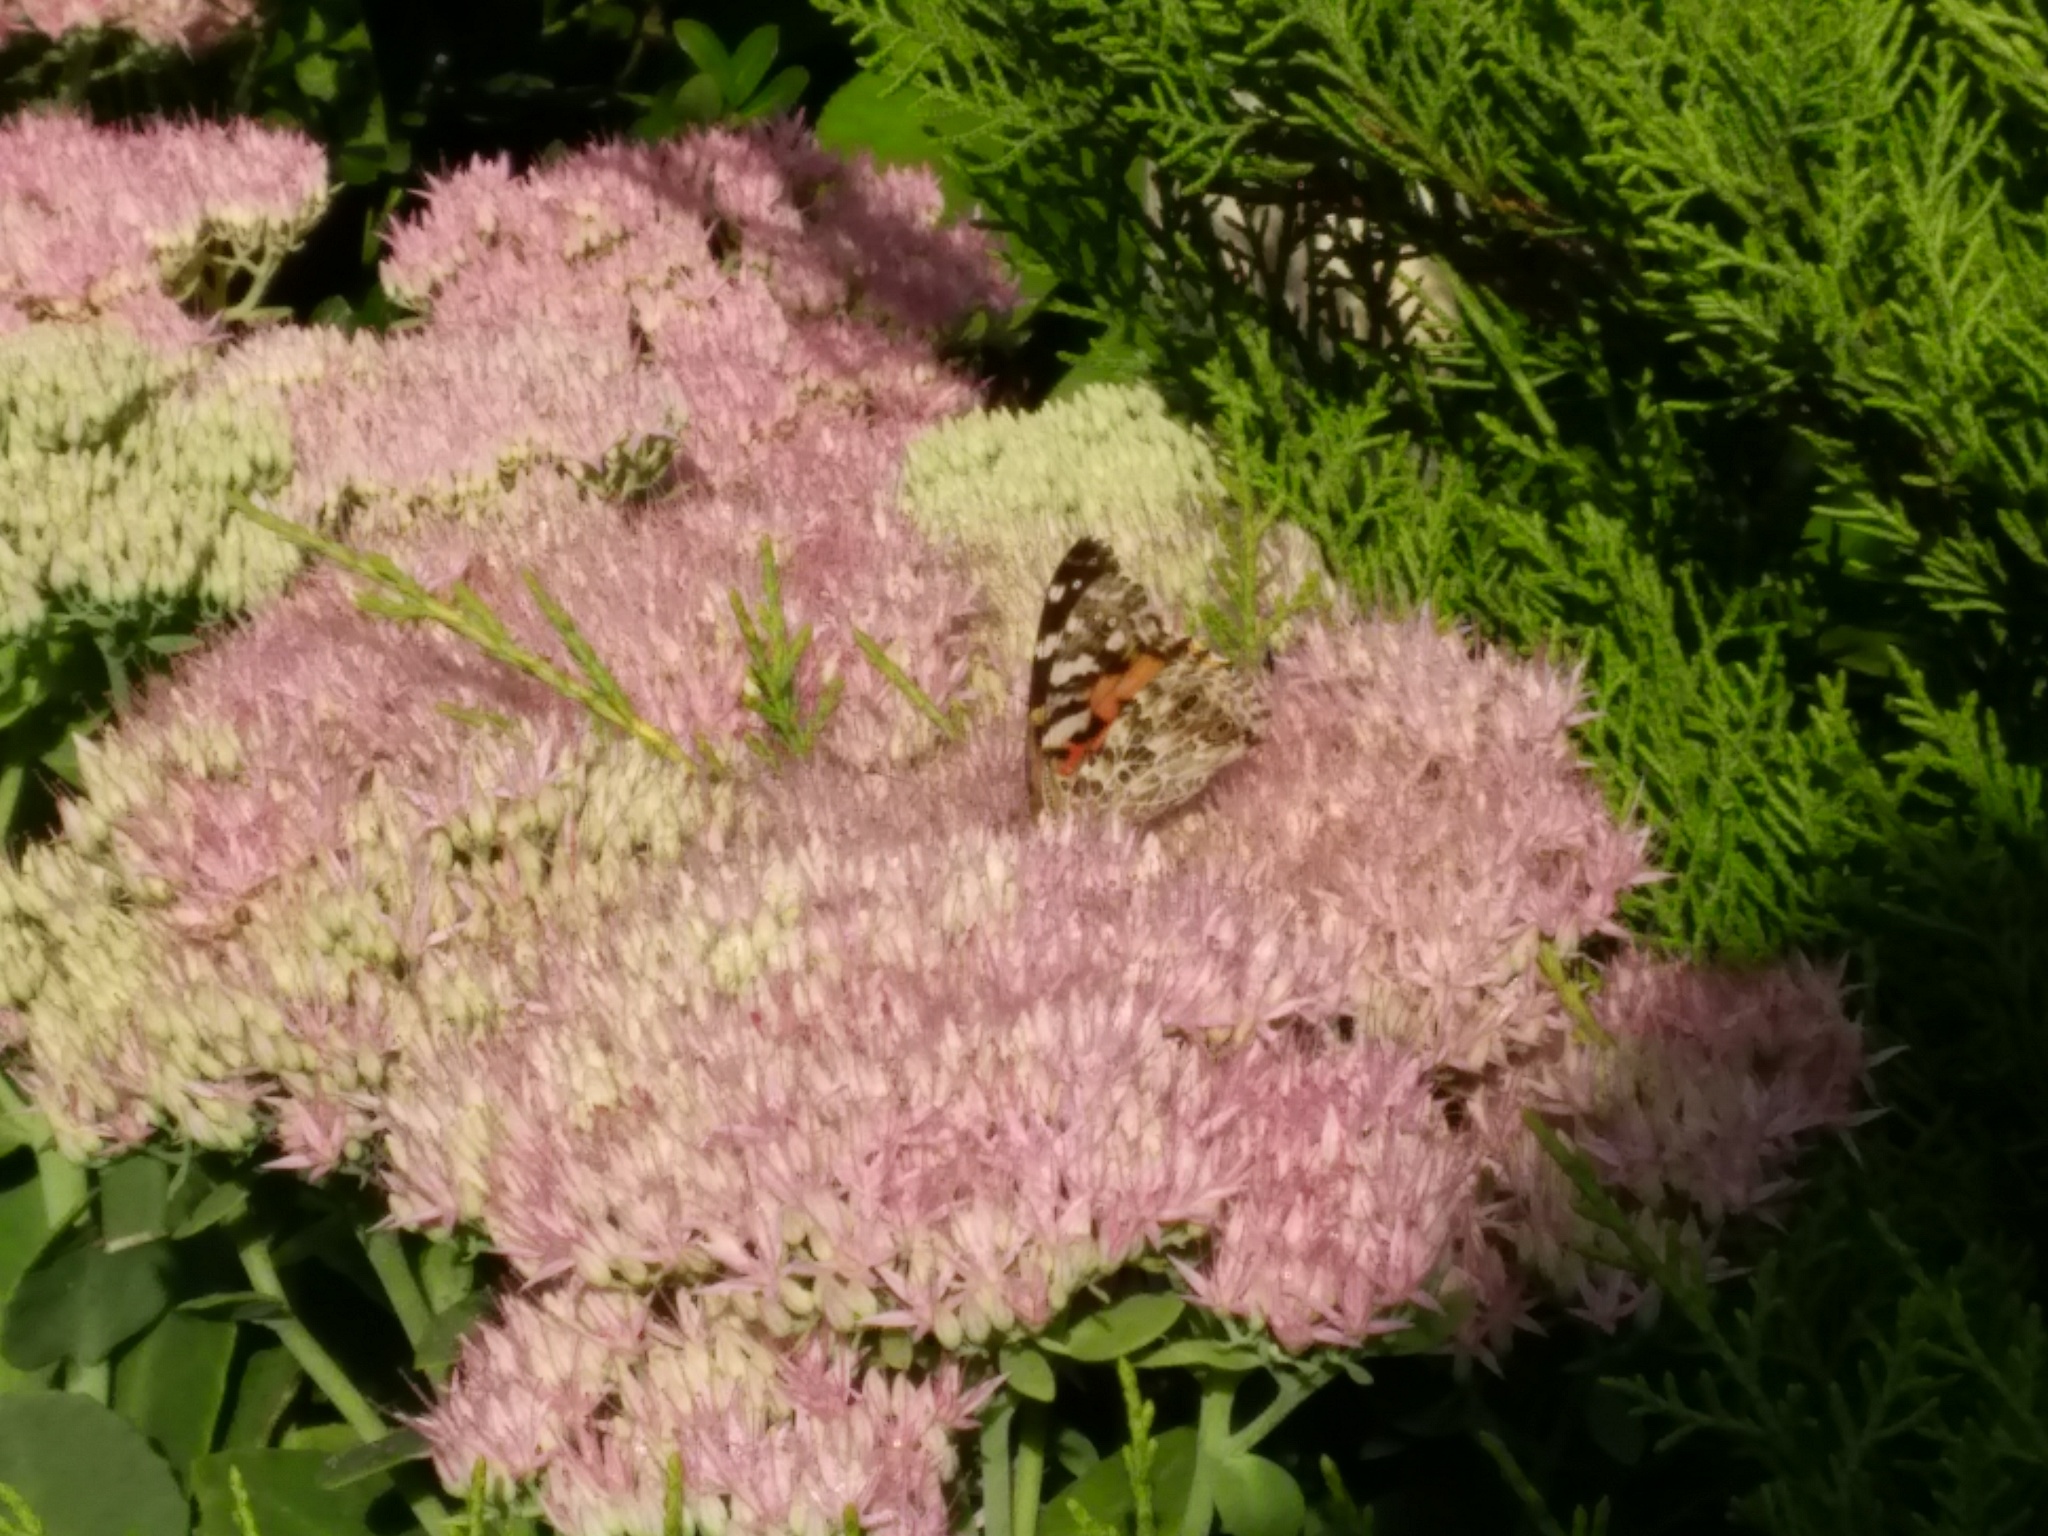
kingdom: Animalia
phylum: Arthropoda
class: Insecta
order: Lepidoptera
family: Nymphalidae
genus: Vanessa
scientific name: Vanessa cardui
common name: Painted lady
